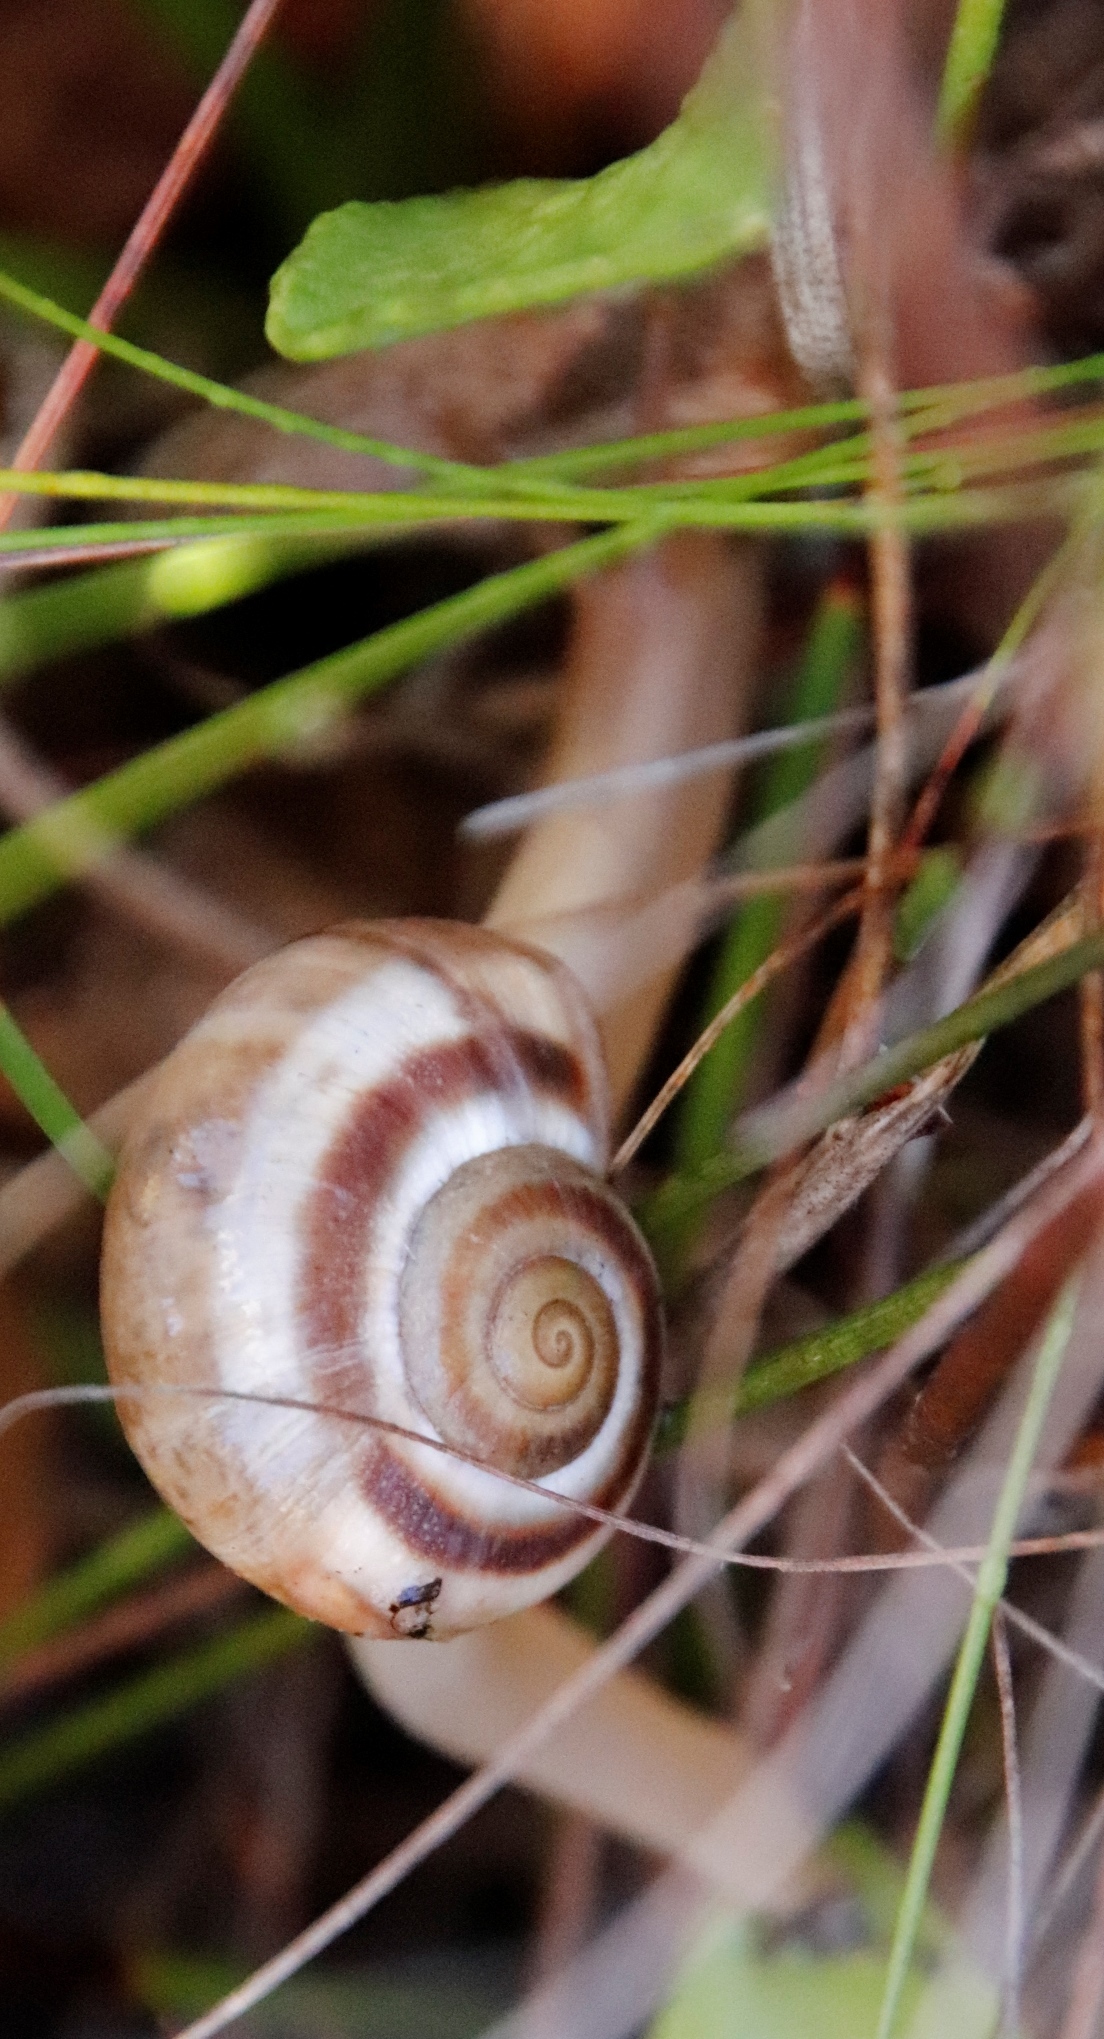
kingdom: Animalia
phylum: Mollusca
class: Gastropoda
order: Stylommatophora
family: Charopidae
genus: Phortion
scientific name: Phortion menkeanum
